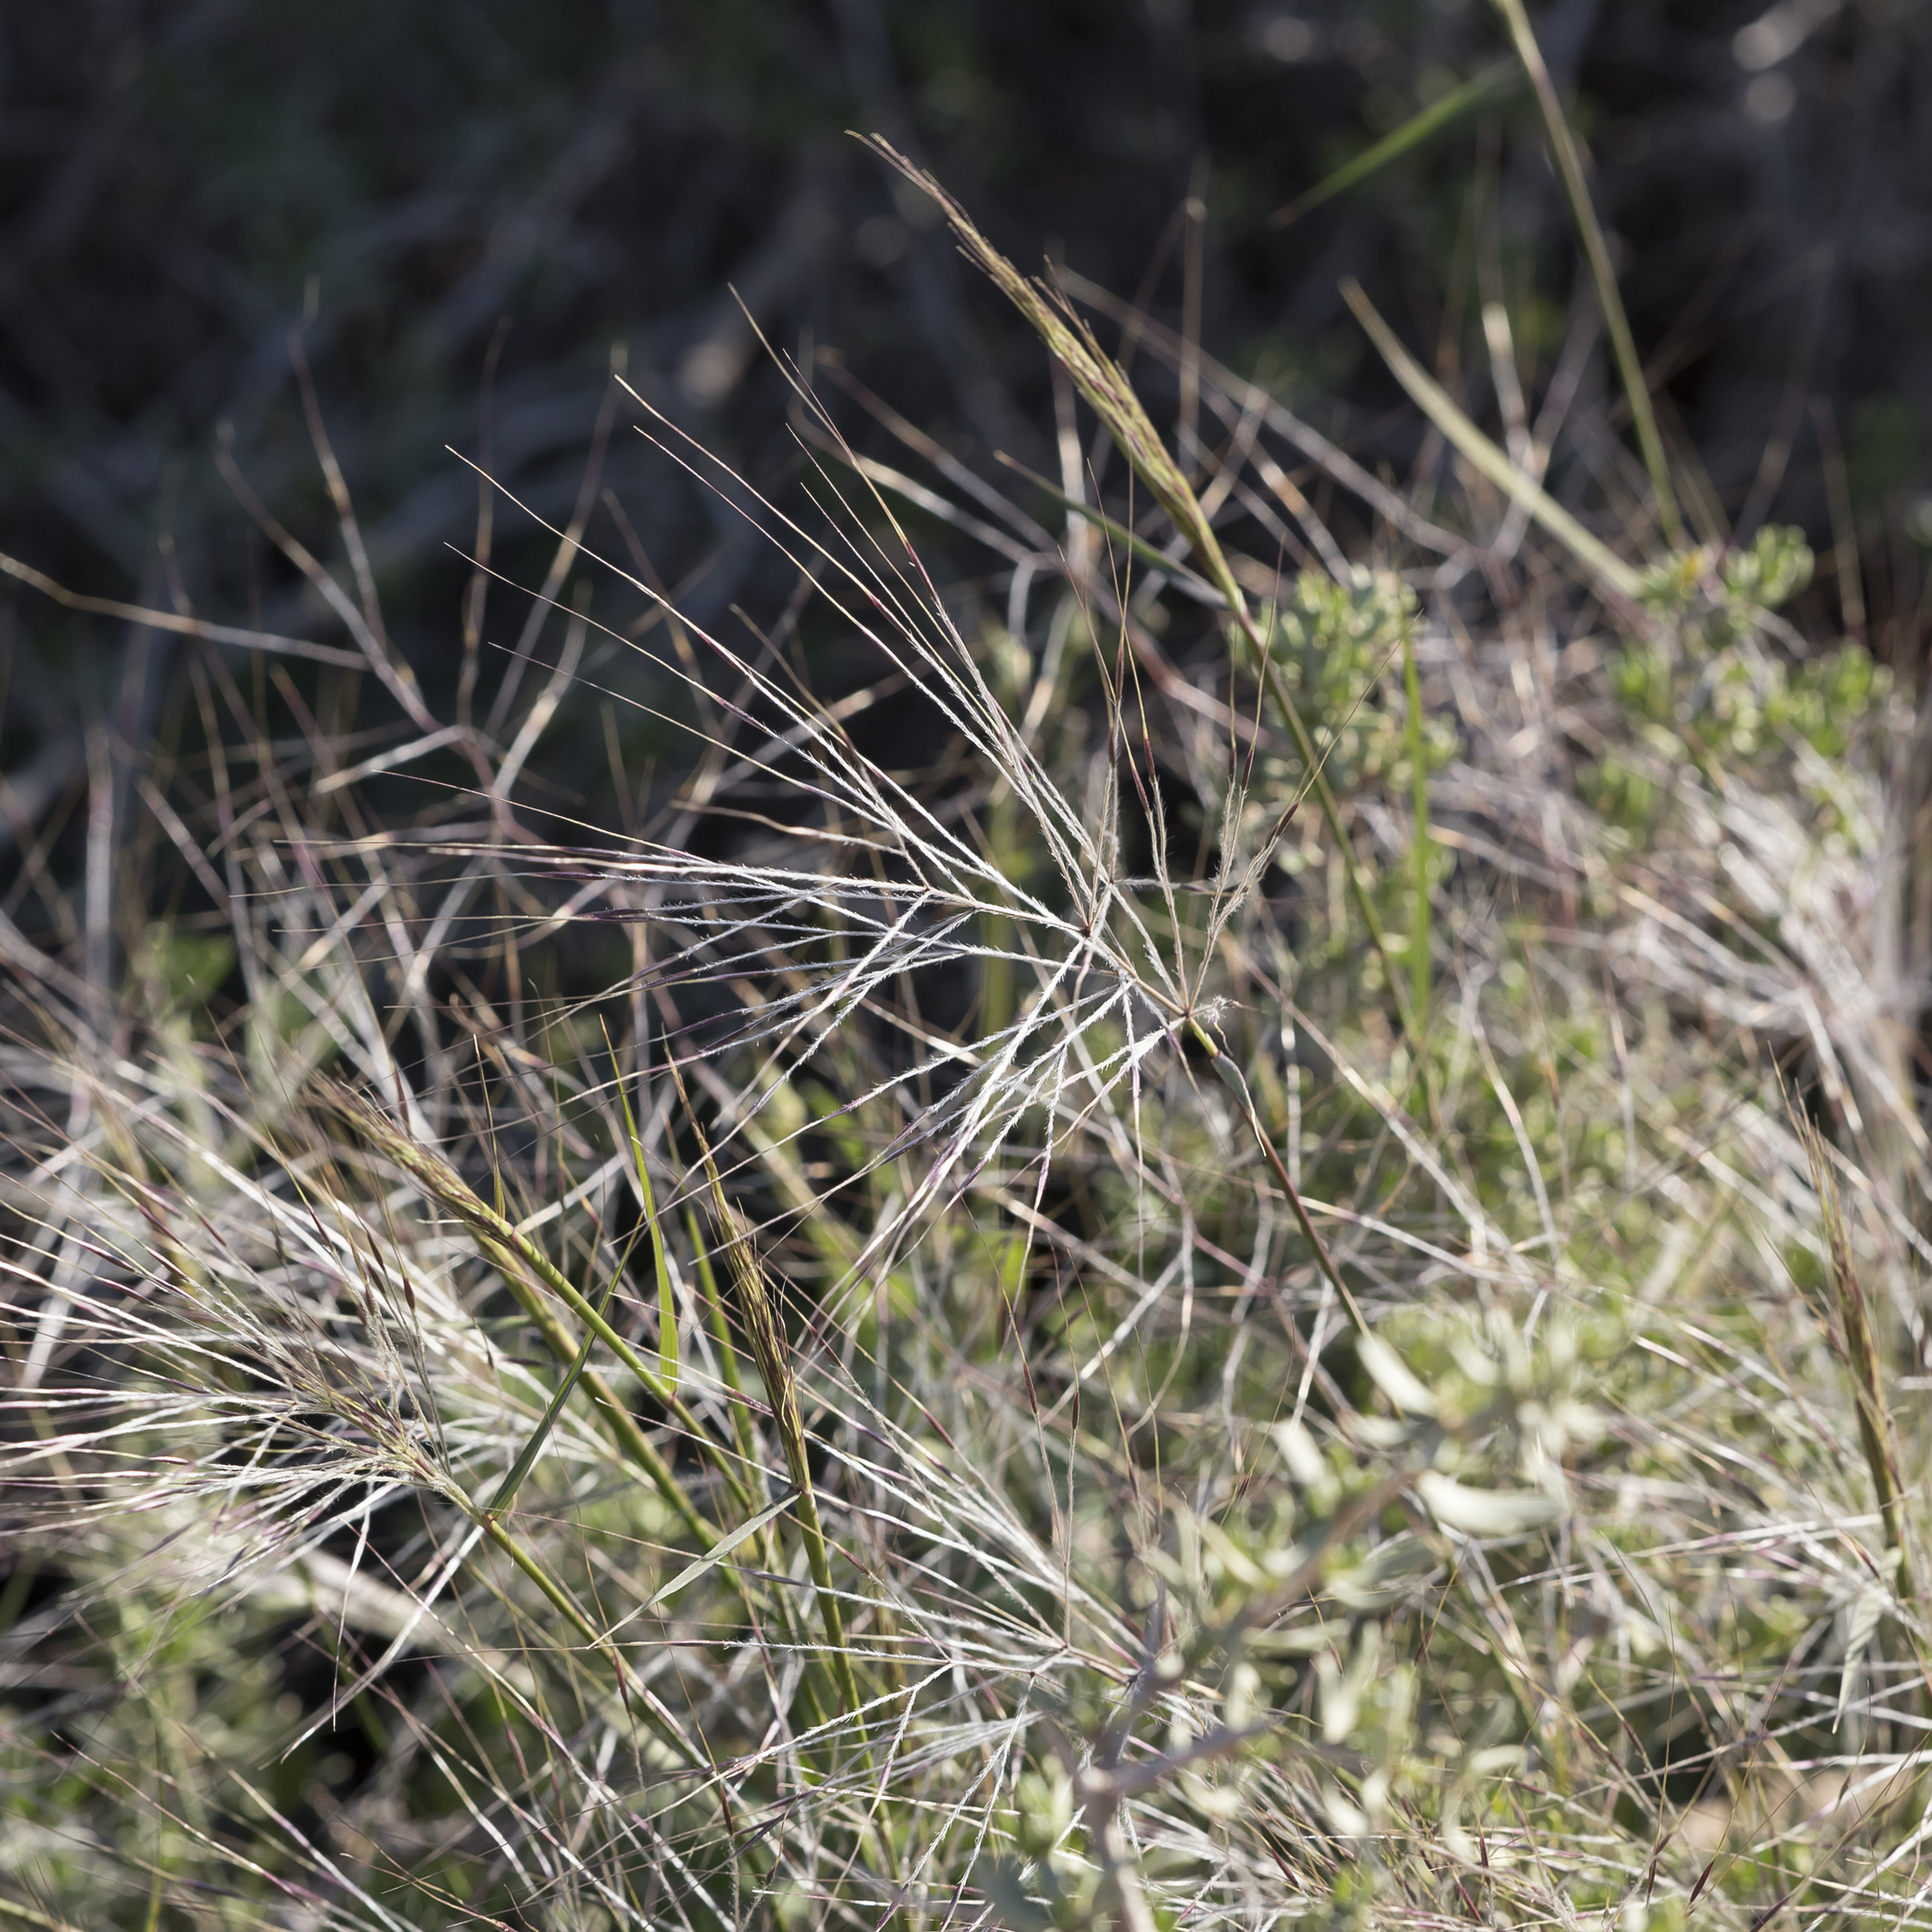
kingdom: Plantae
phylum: Tracheophyta
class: Liliopsida
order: Poales
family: Poaceae
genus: Austrostipa
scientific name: Austrostipa elegantissima
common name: Feather spear grass
